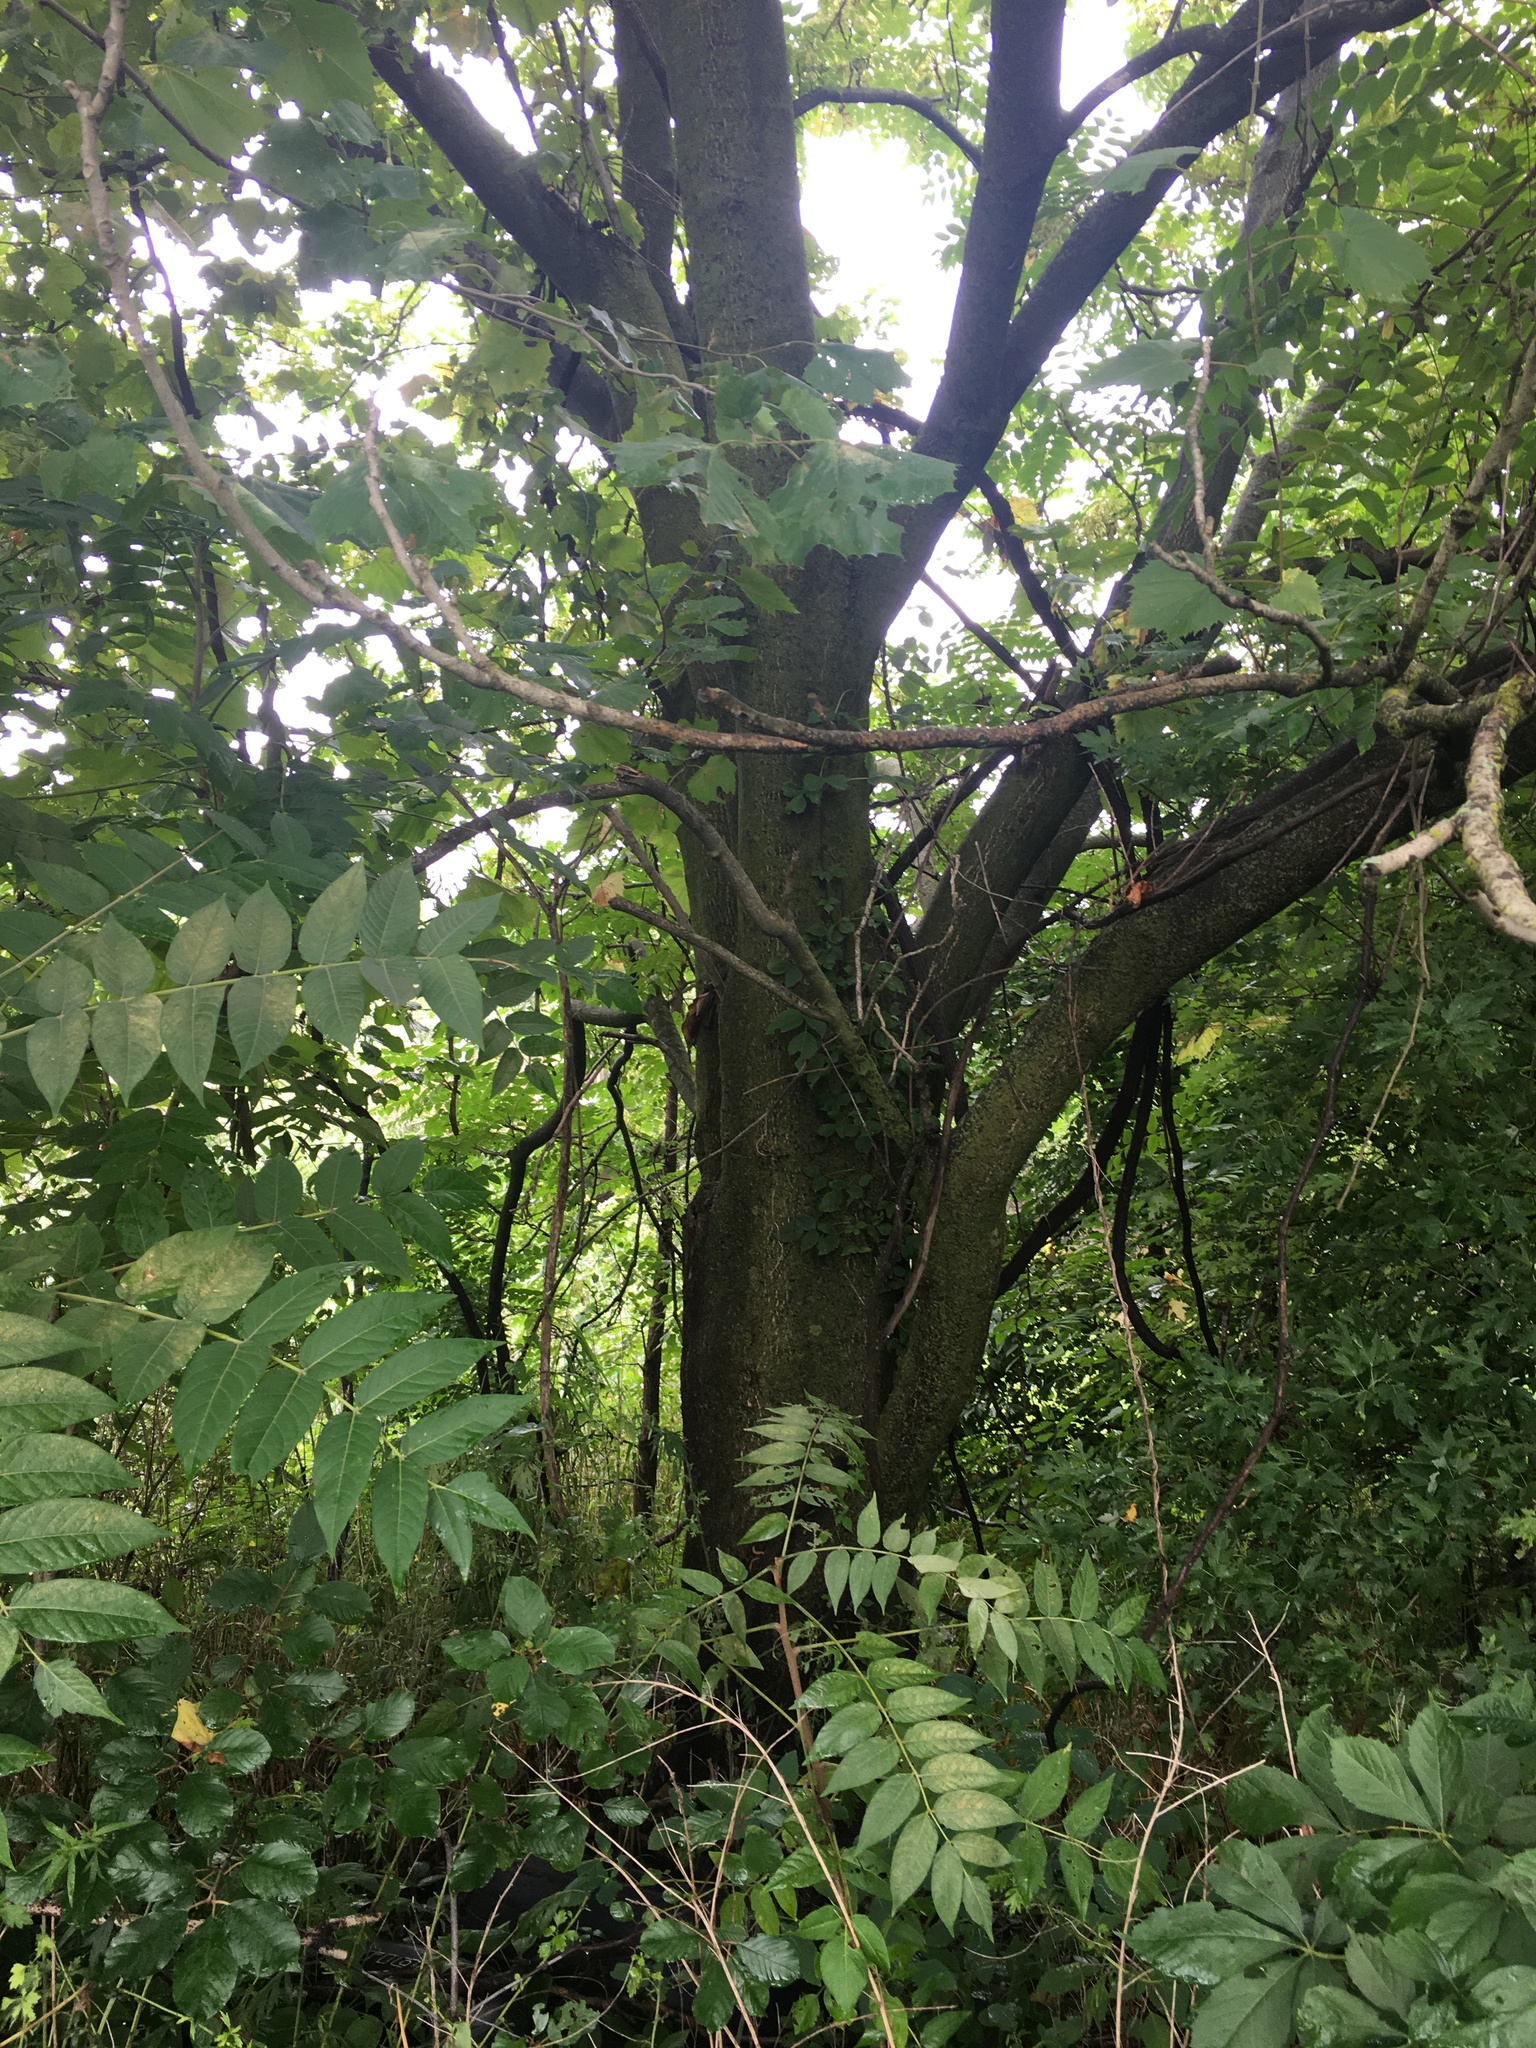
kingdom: Plantae
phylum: Tracheophyta
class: Magnoliopsida
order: Sapindales
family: Simaroubaceae
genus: Ailanthus
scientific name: Ailanthus altissima
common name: Tree-of-heaven
